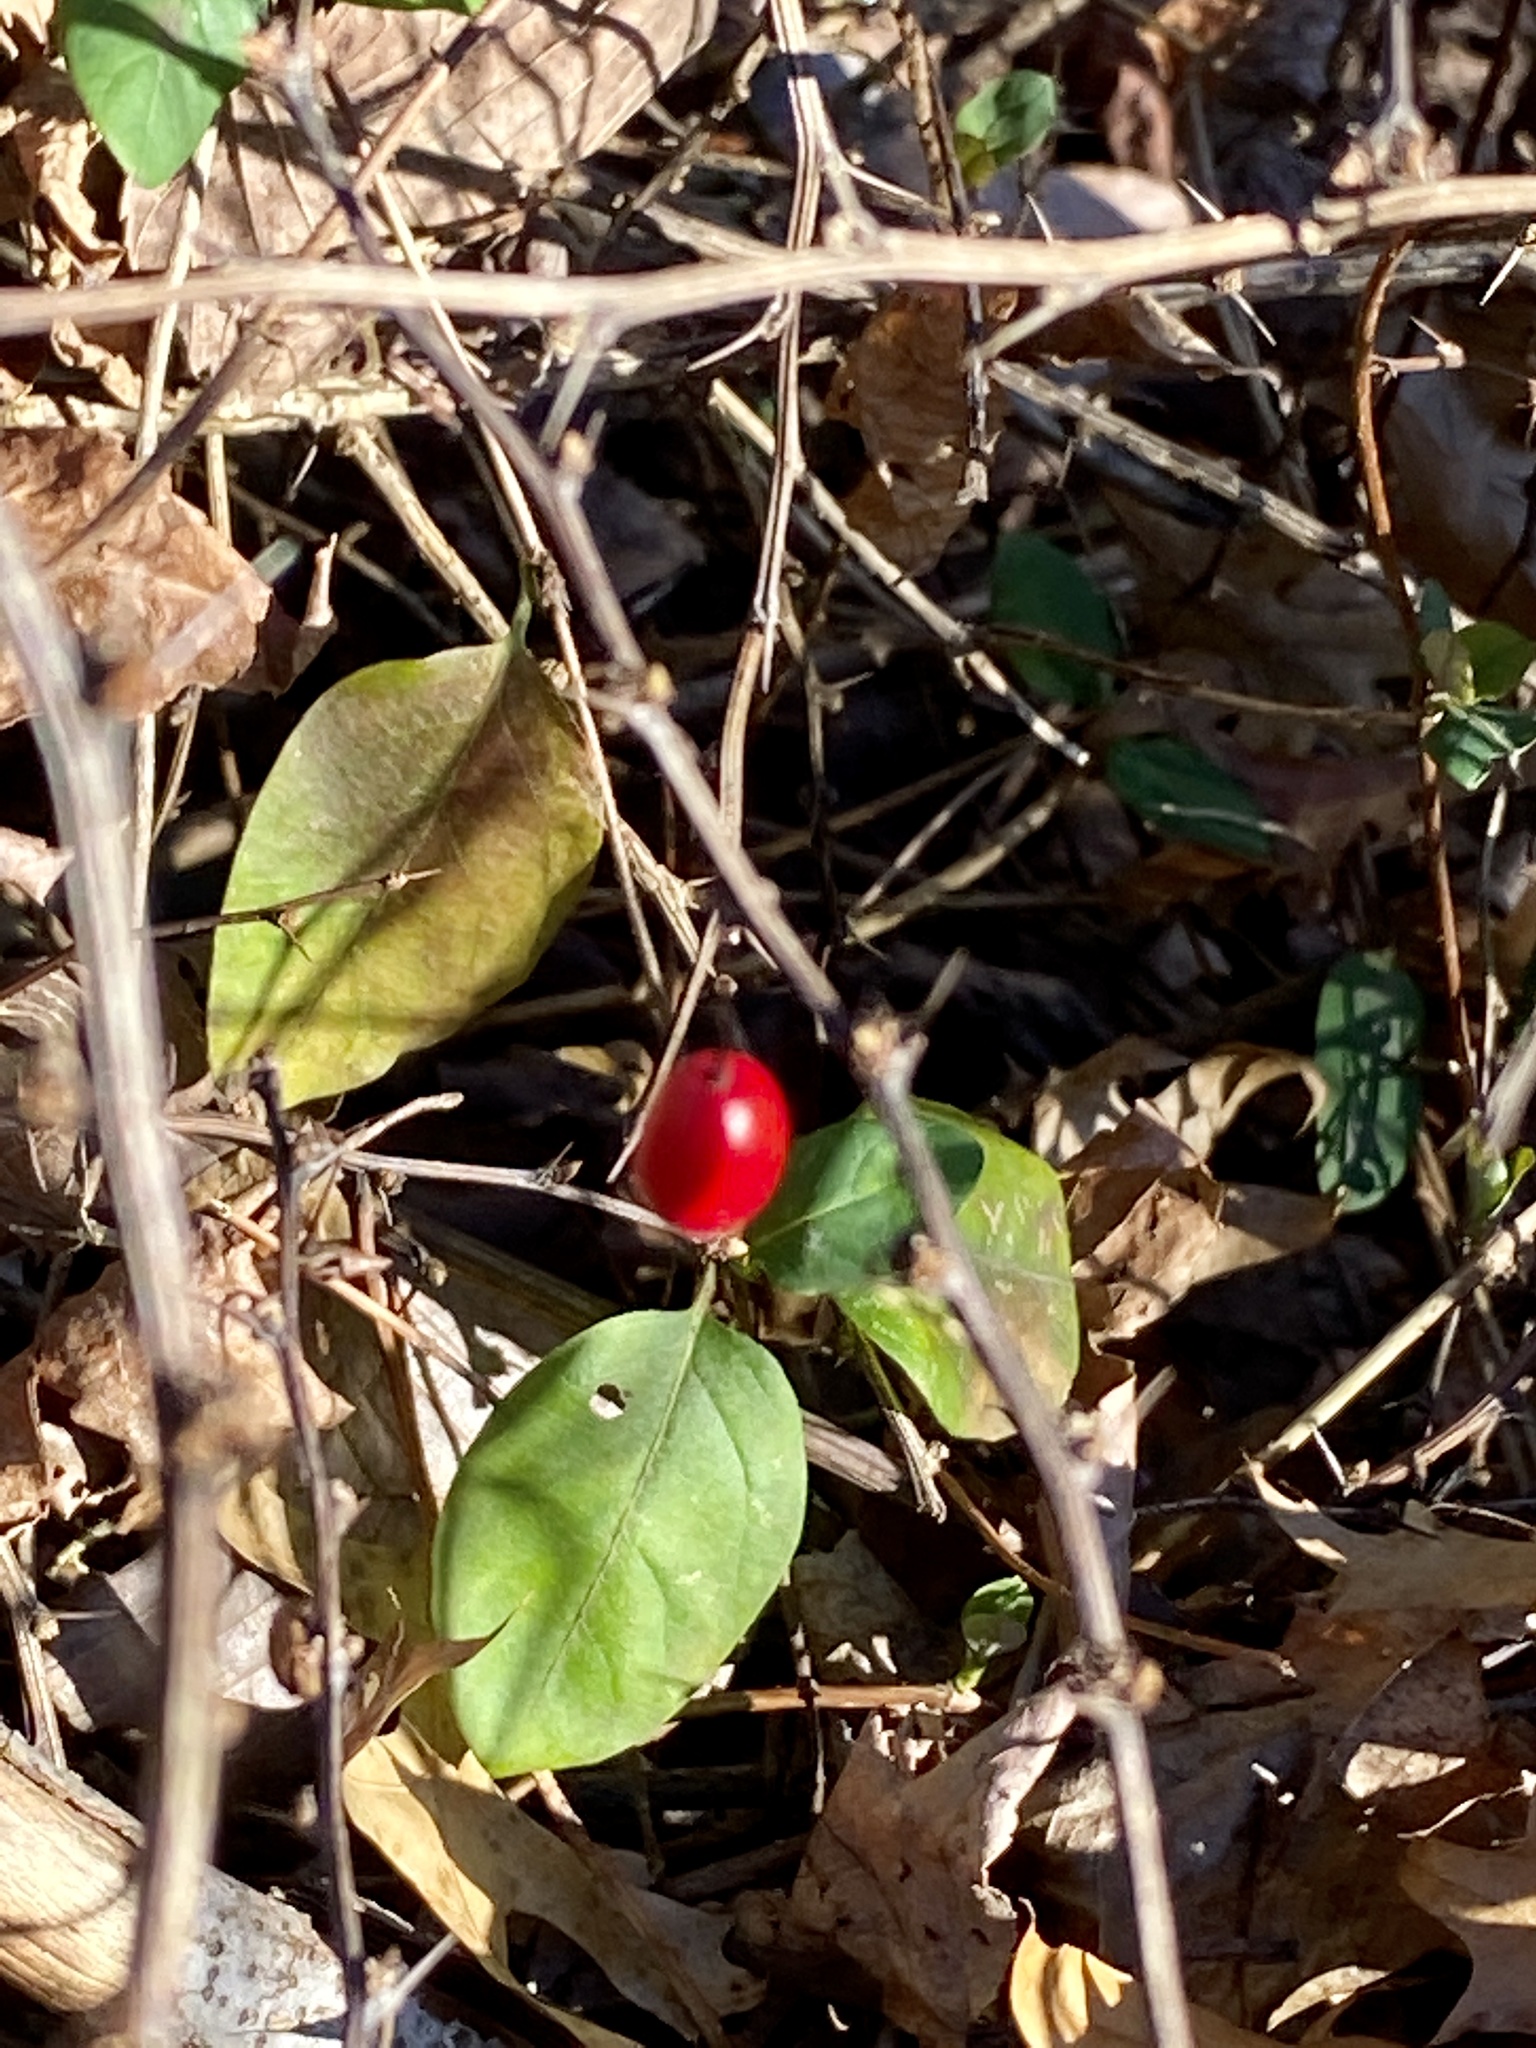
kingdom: Plantae
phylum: Tracheophyta
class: Magnoliopsida
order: Ranunculales
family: Berberidaceae
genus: Berberis
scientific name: Berberis thunbergii
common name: Japanese barberry
